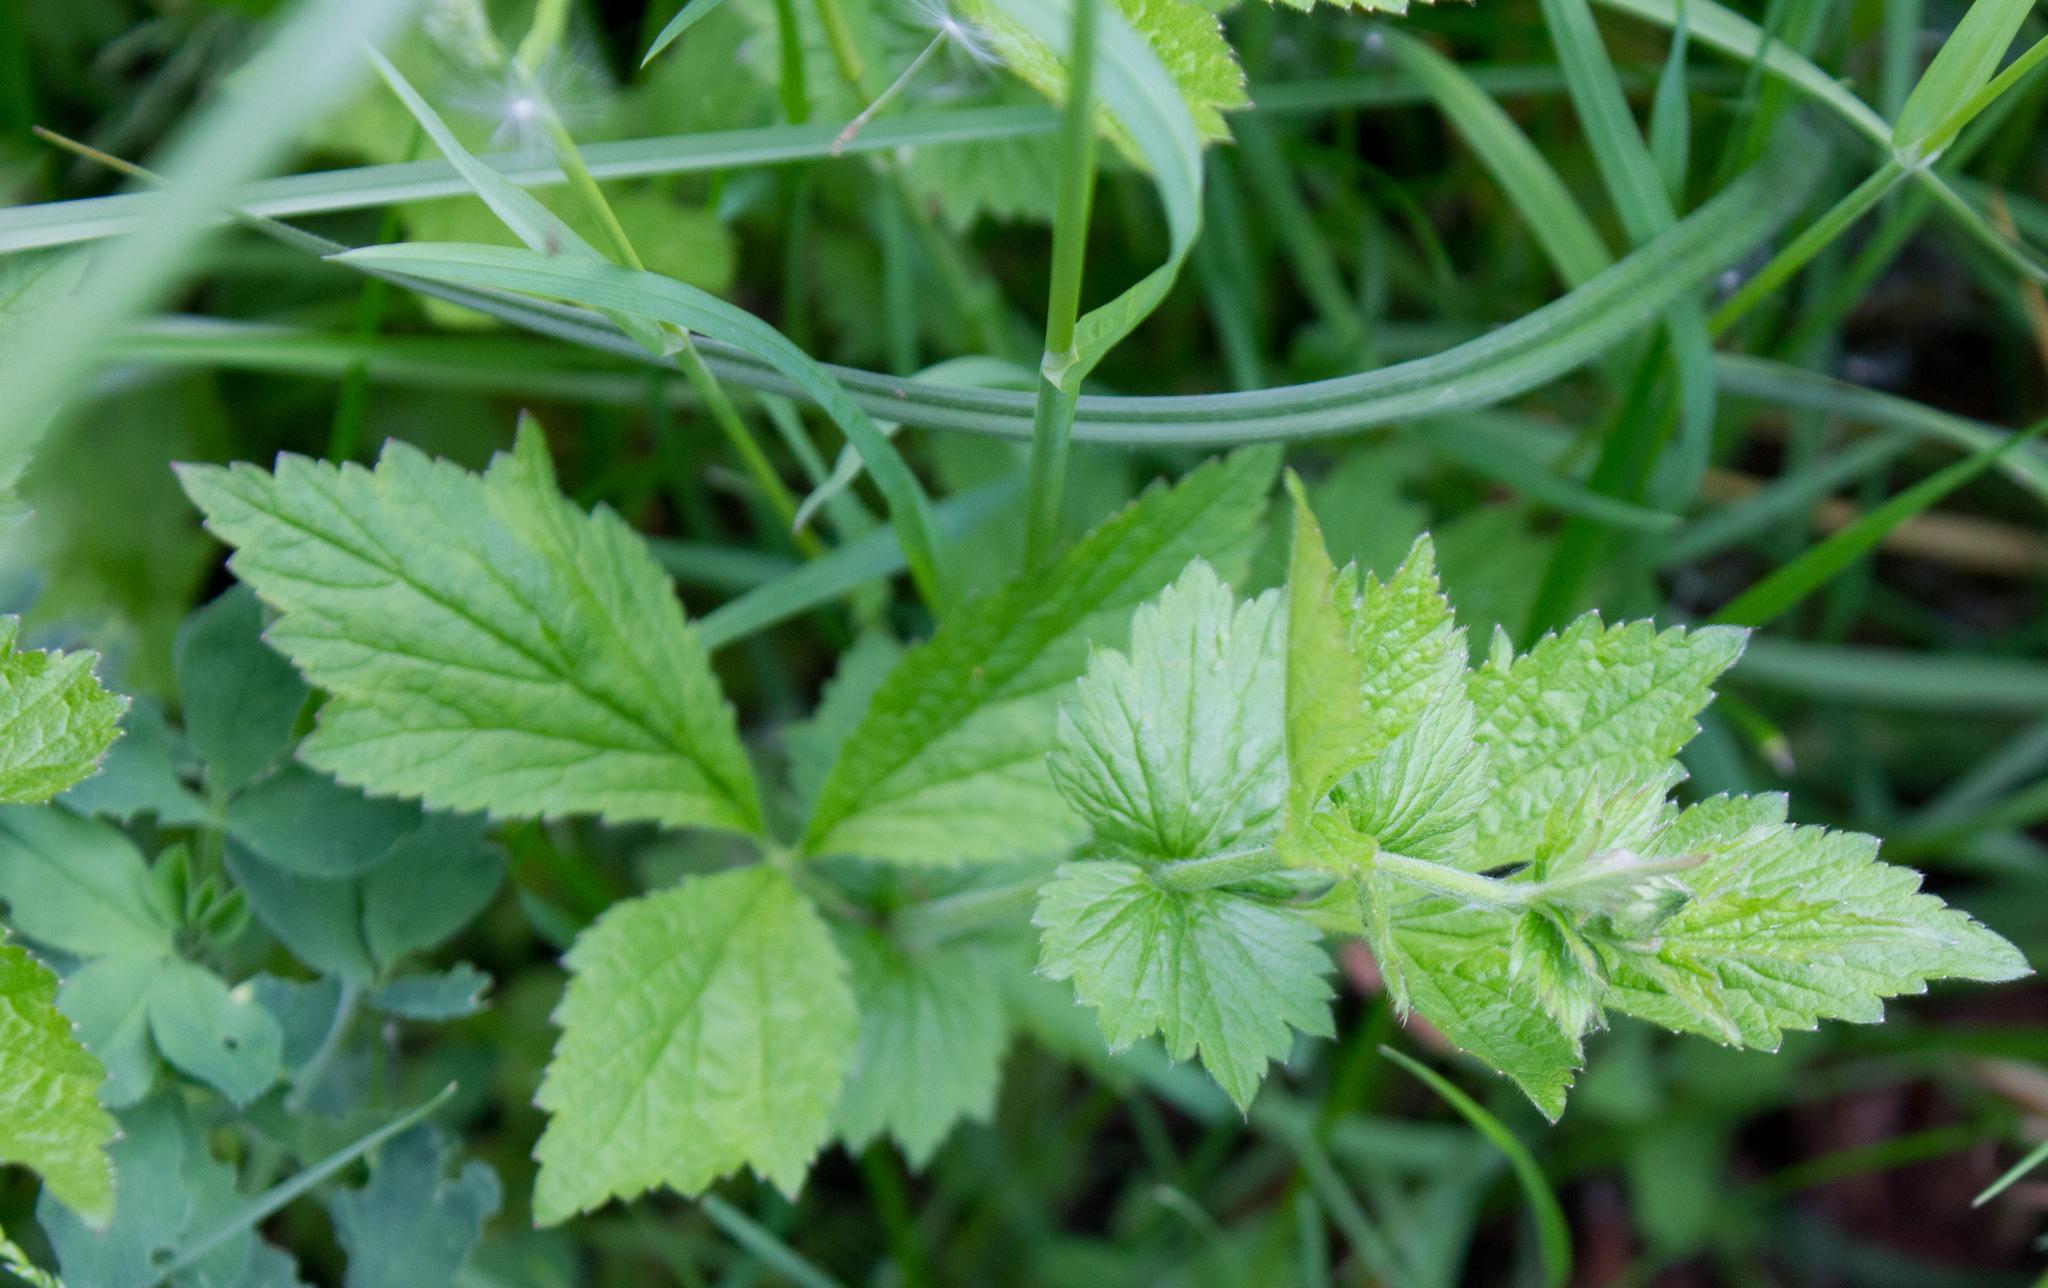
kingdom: Plantae
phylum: Tracheophyta
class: Magnoliopsida
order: Rosales
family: Rosaceae
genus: Geum
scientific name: Geum urbanum
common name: Wood avens
